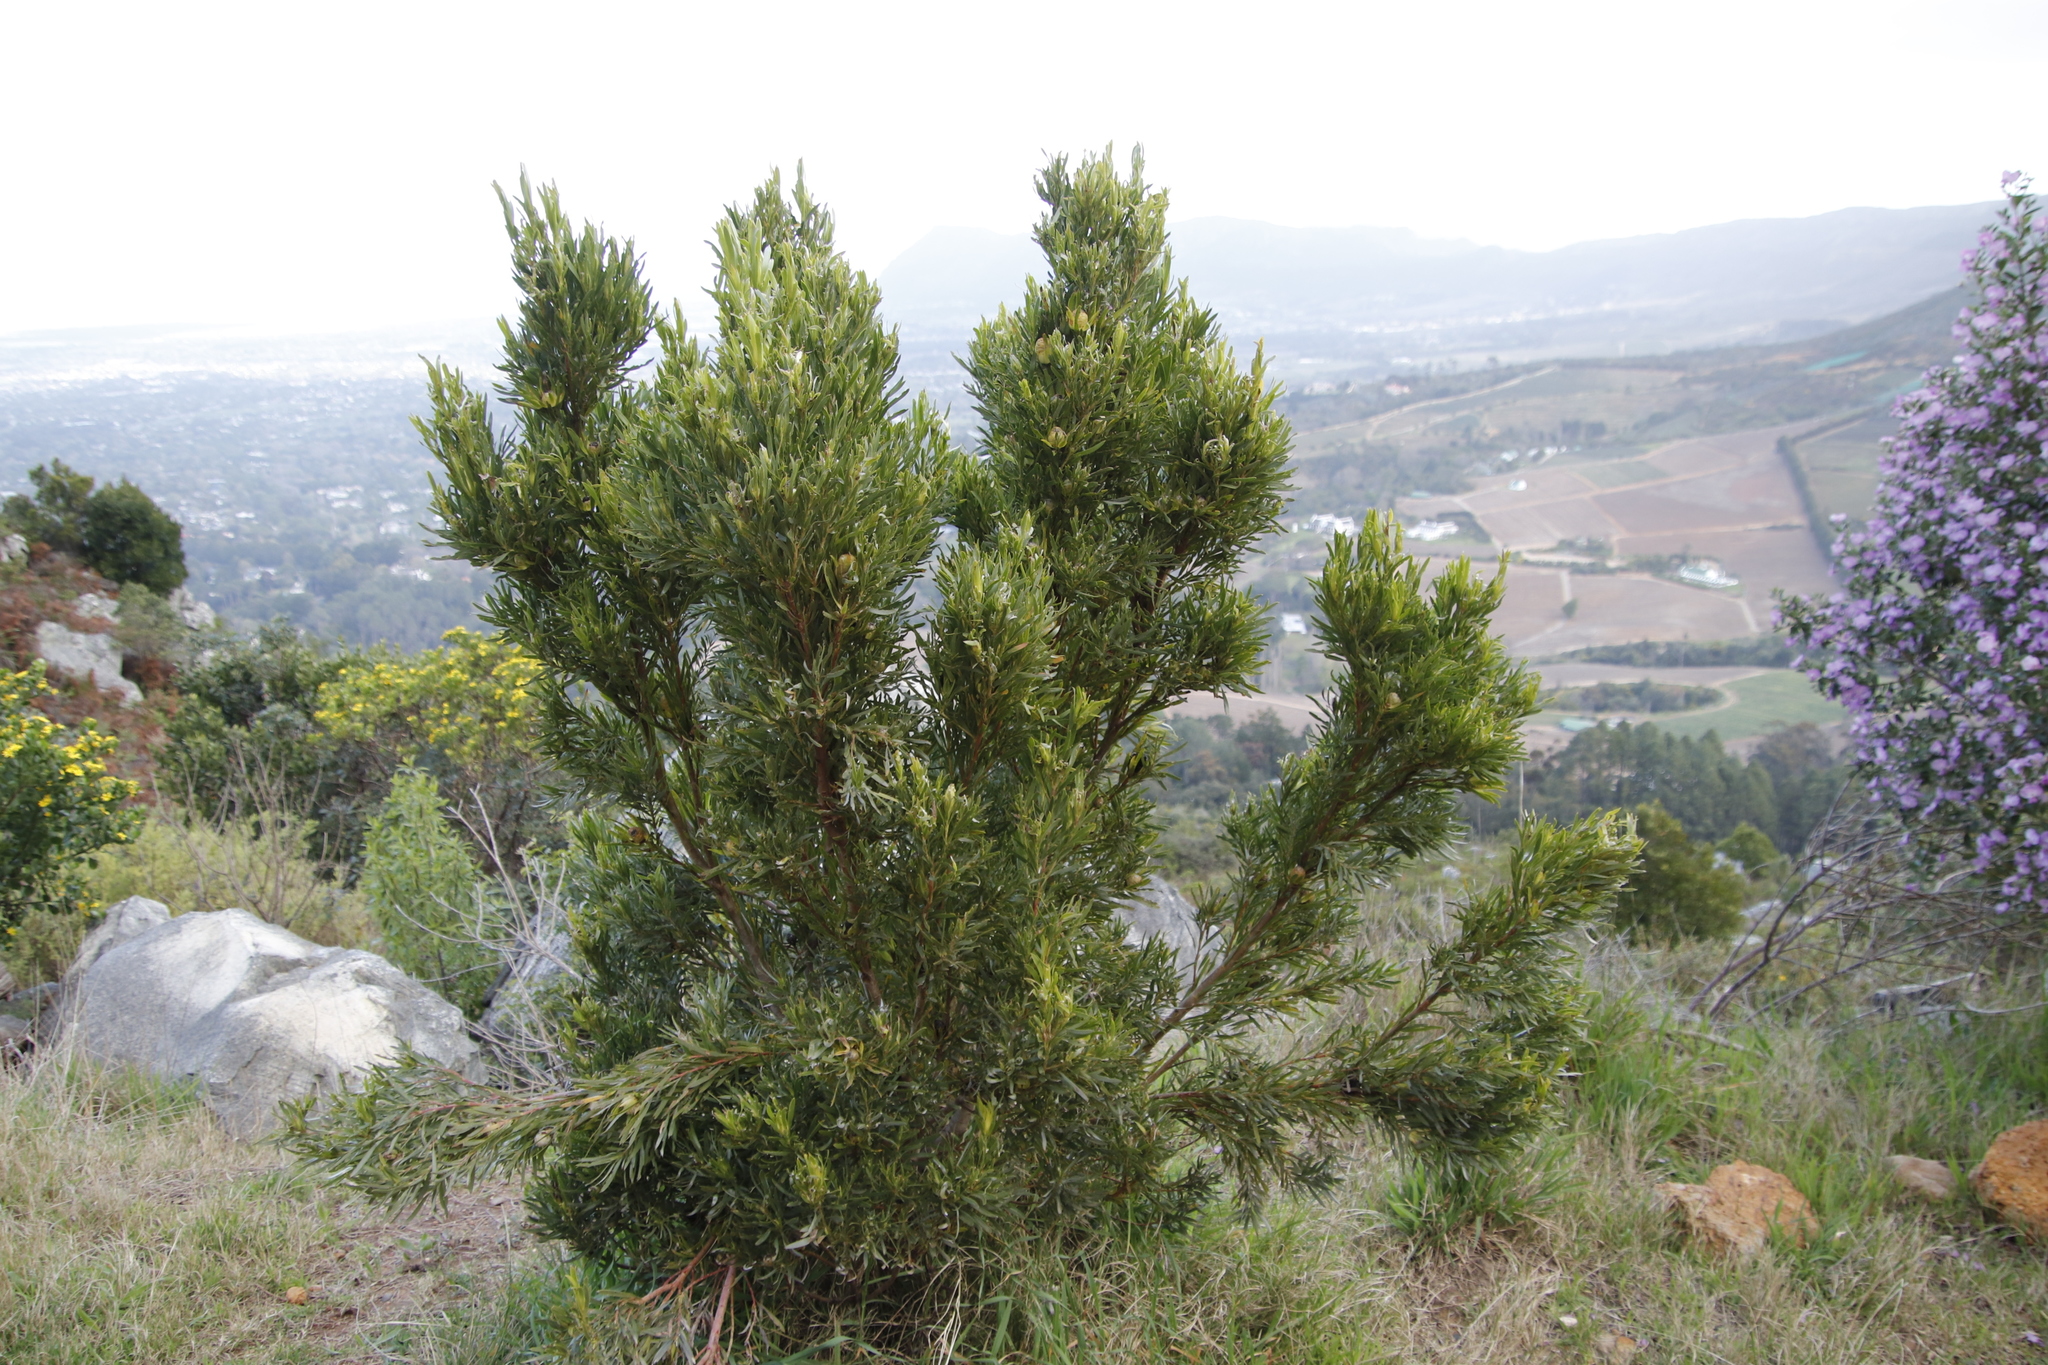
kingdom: Plantae
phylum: Tracheophyta
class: Magnoliopsida
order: Proteales
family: Proteaceae
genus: Leucadendron
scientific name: Leucadendron xanthoconus
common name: Sickle-leaf conebush
